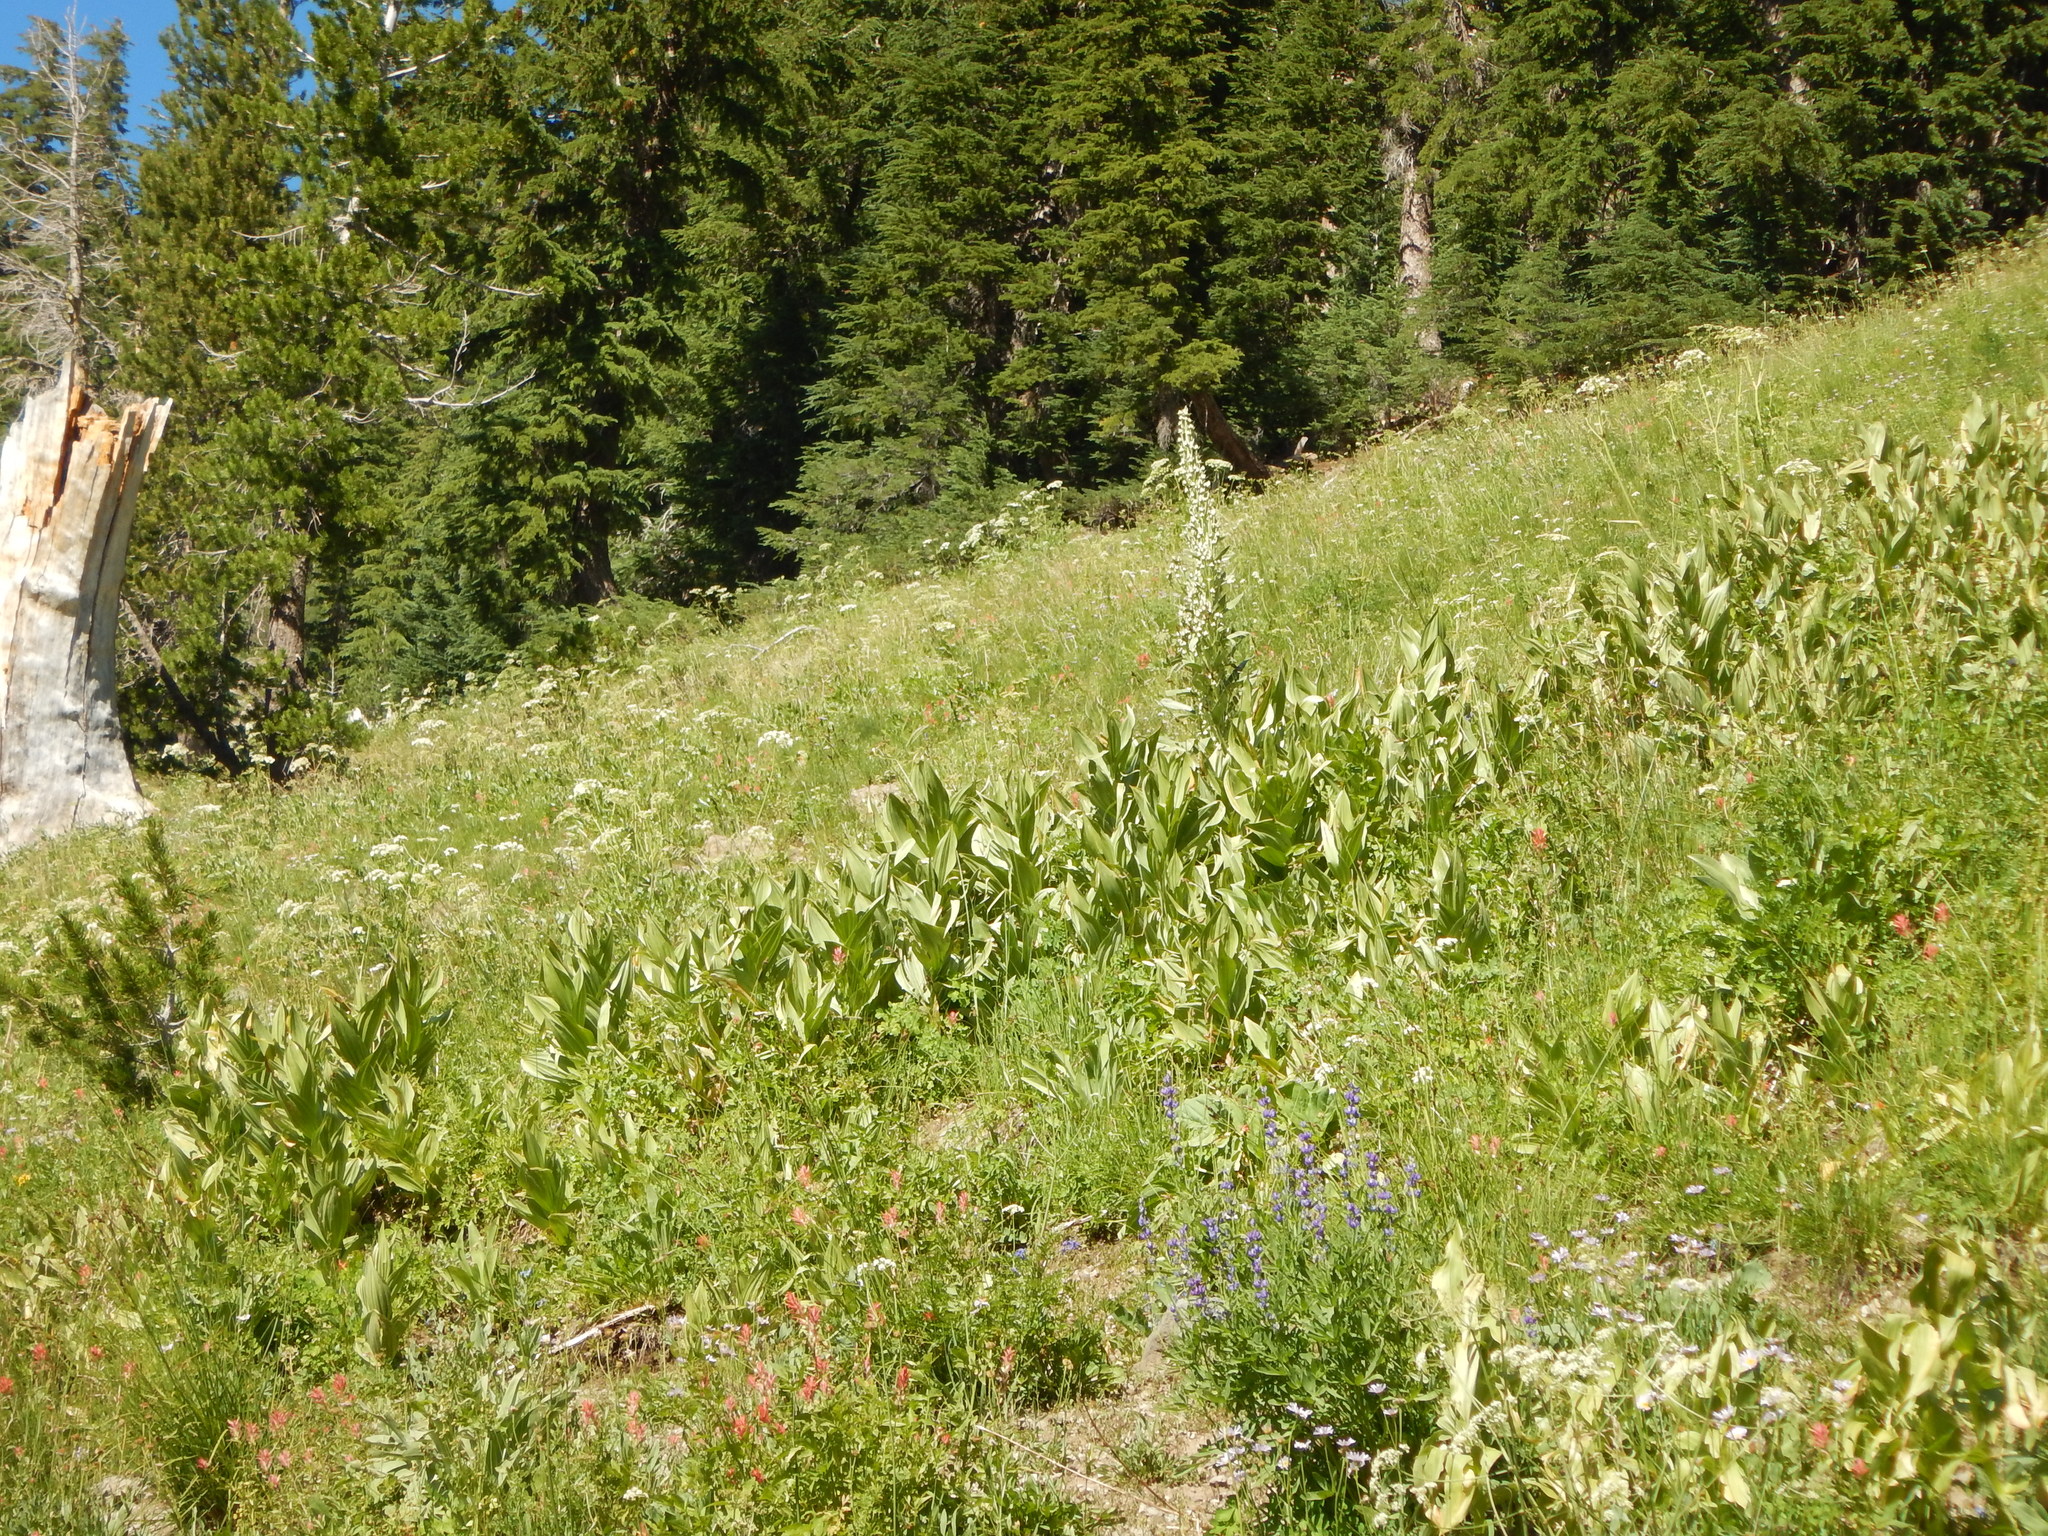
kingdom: Plantae
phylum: Tracheophyta
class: Liliopsida
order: Liliales
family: Melanthiaceae
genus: Veratrum
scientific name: Veratrum californicum
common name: California veratrum
